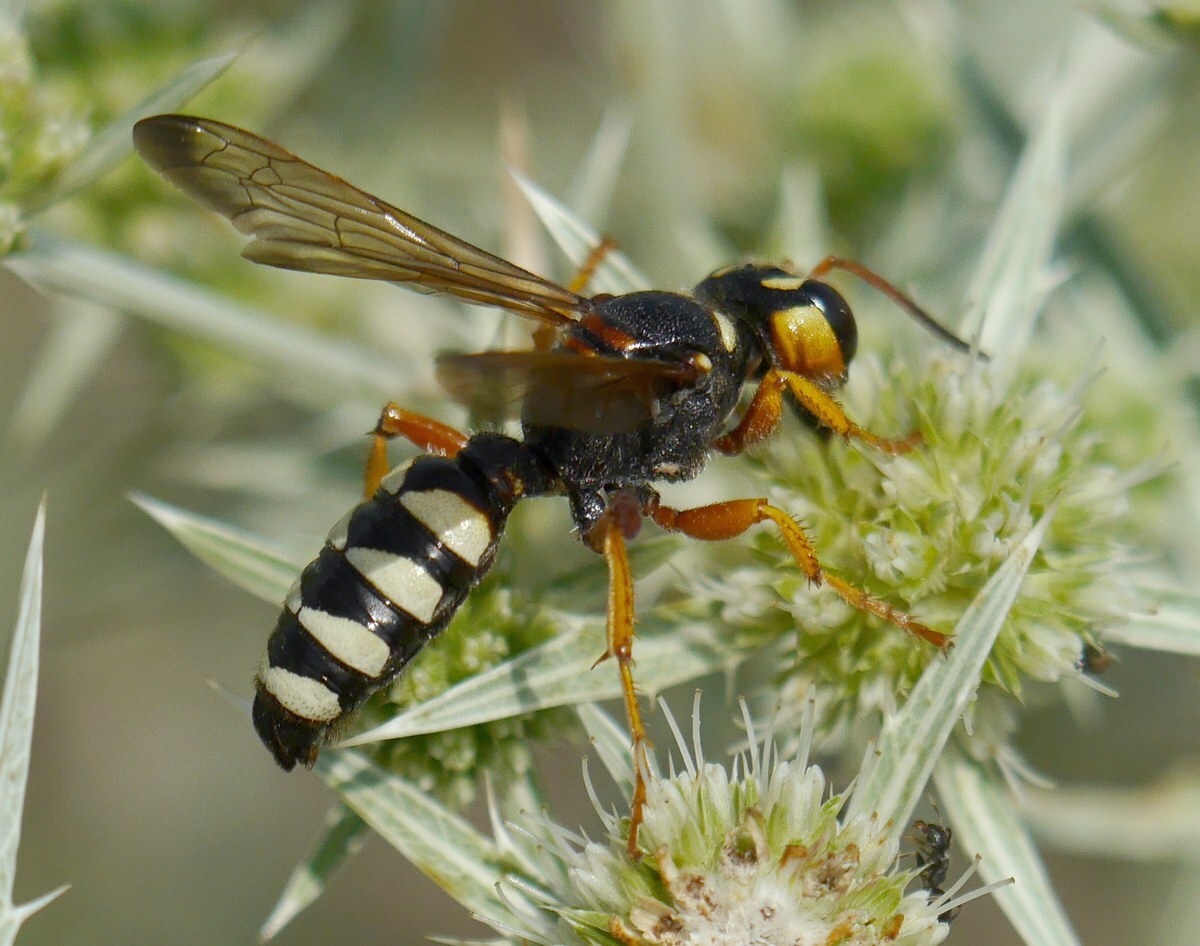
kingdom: Animalia
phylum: Arthropoda
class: Insecta
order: Hymenoptera
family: Crabronidae
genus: Cerceris
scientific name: Cerceris tuberculata
